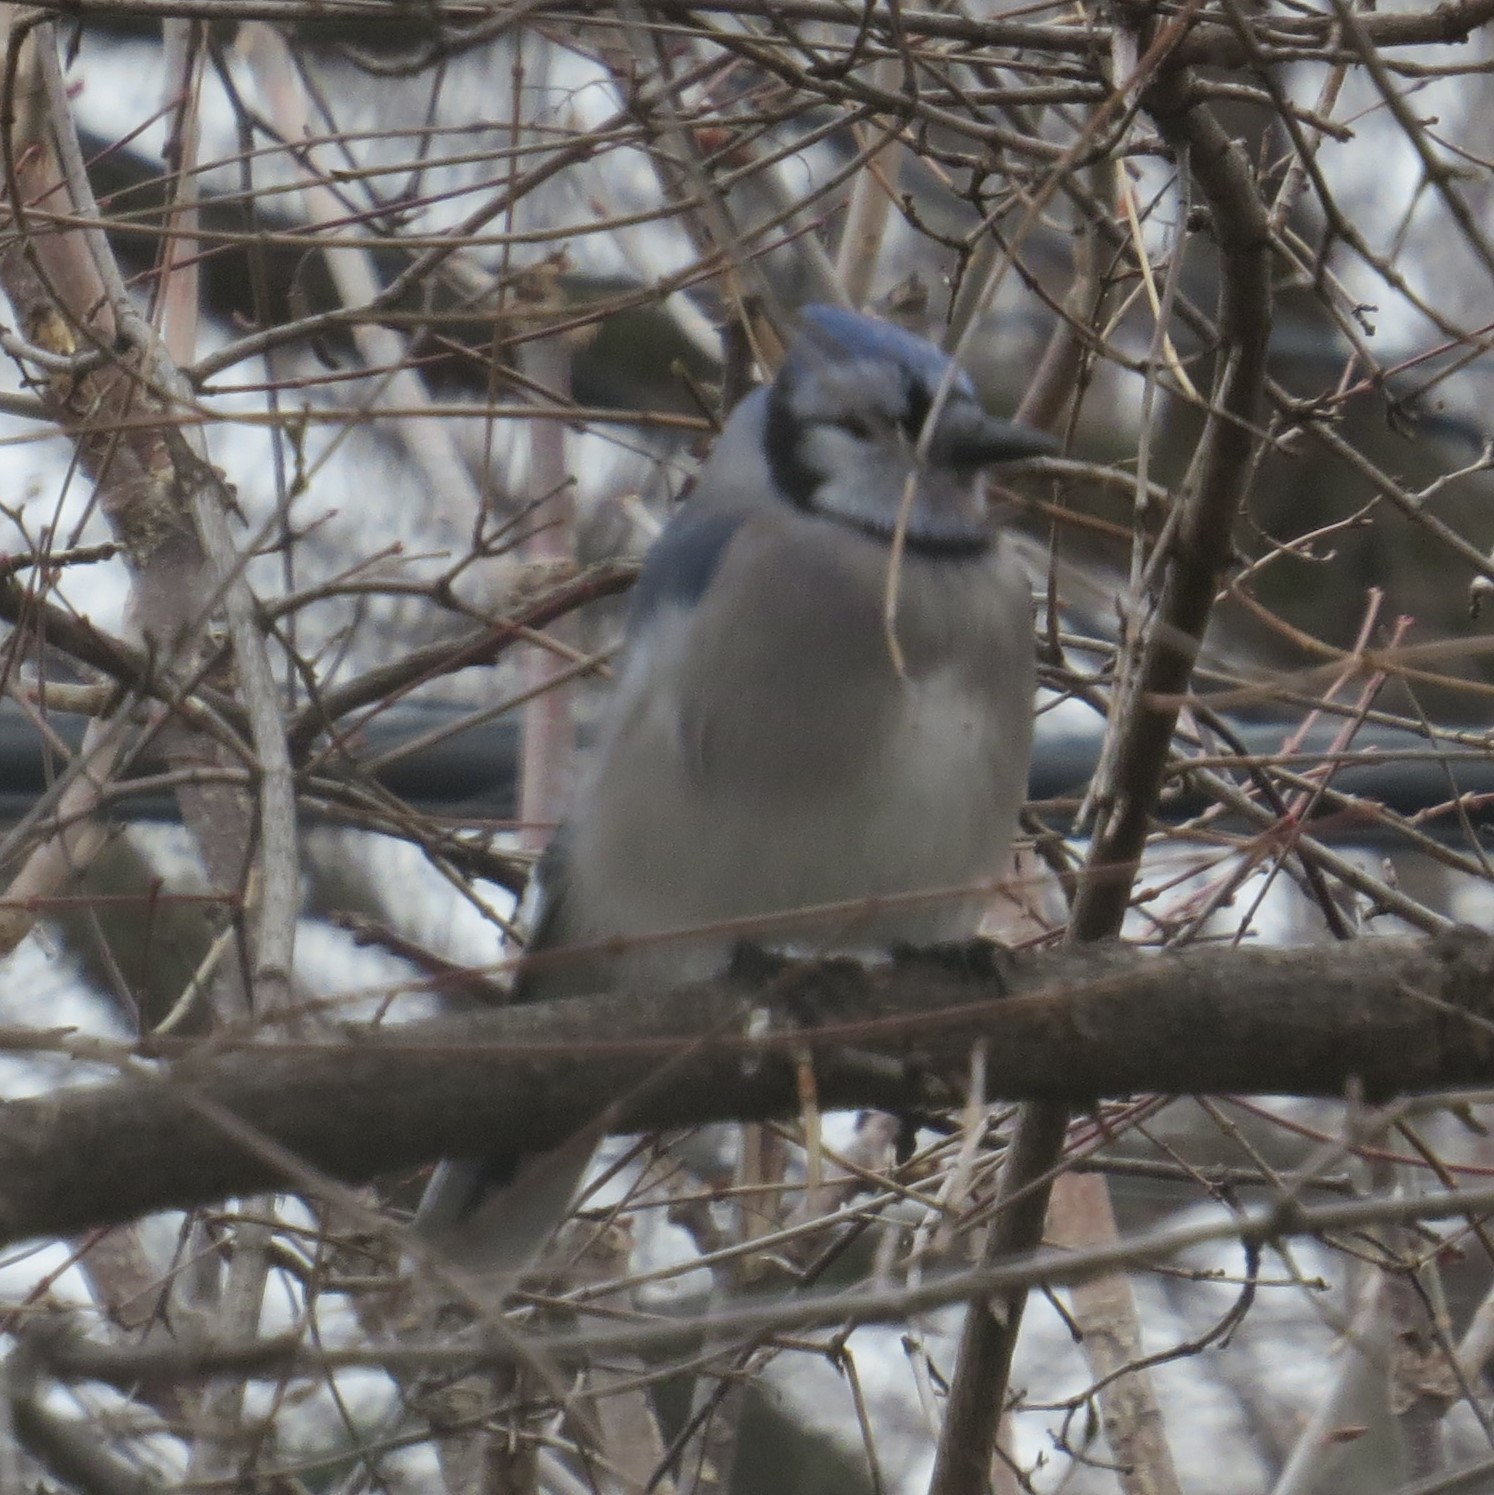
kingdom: Animalia
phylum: Chordata
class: Aves
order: Passeriformes
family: Corvidae
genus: Cyanocitta
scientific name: Cyanocitta cristata
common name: Blue jay
